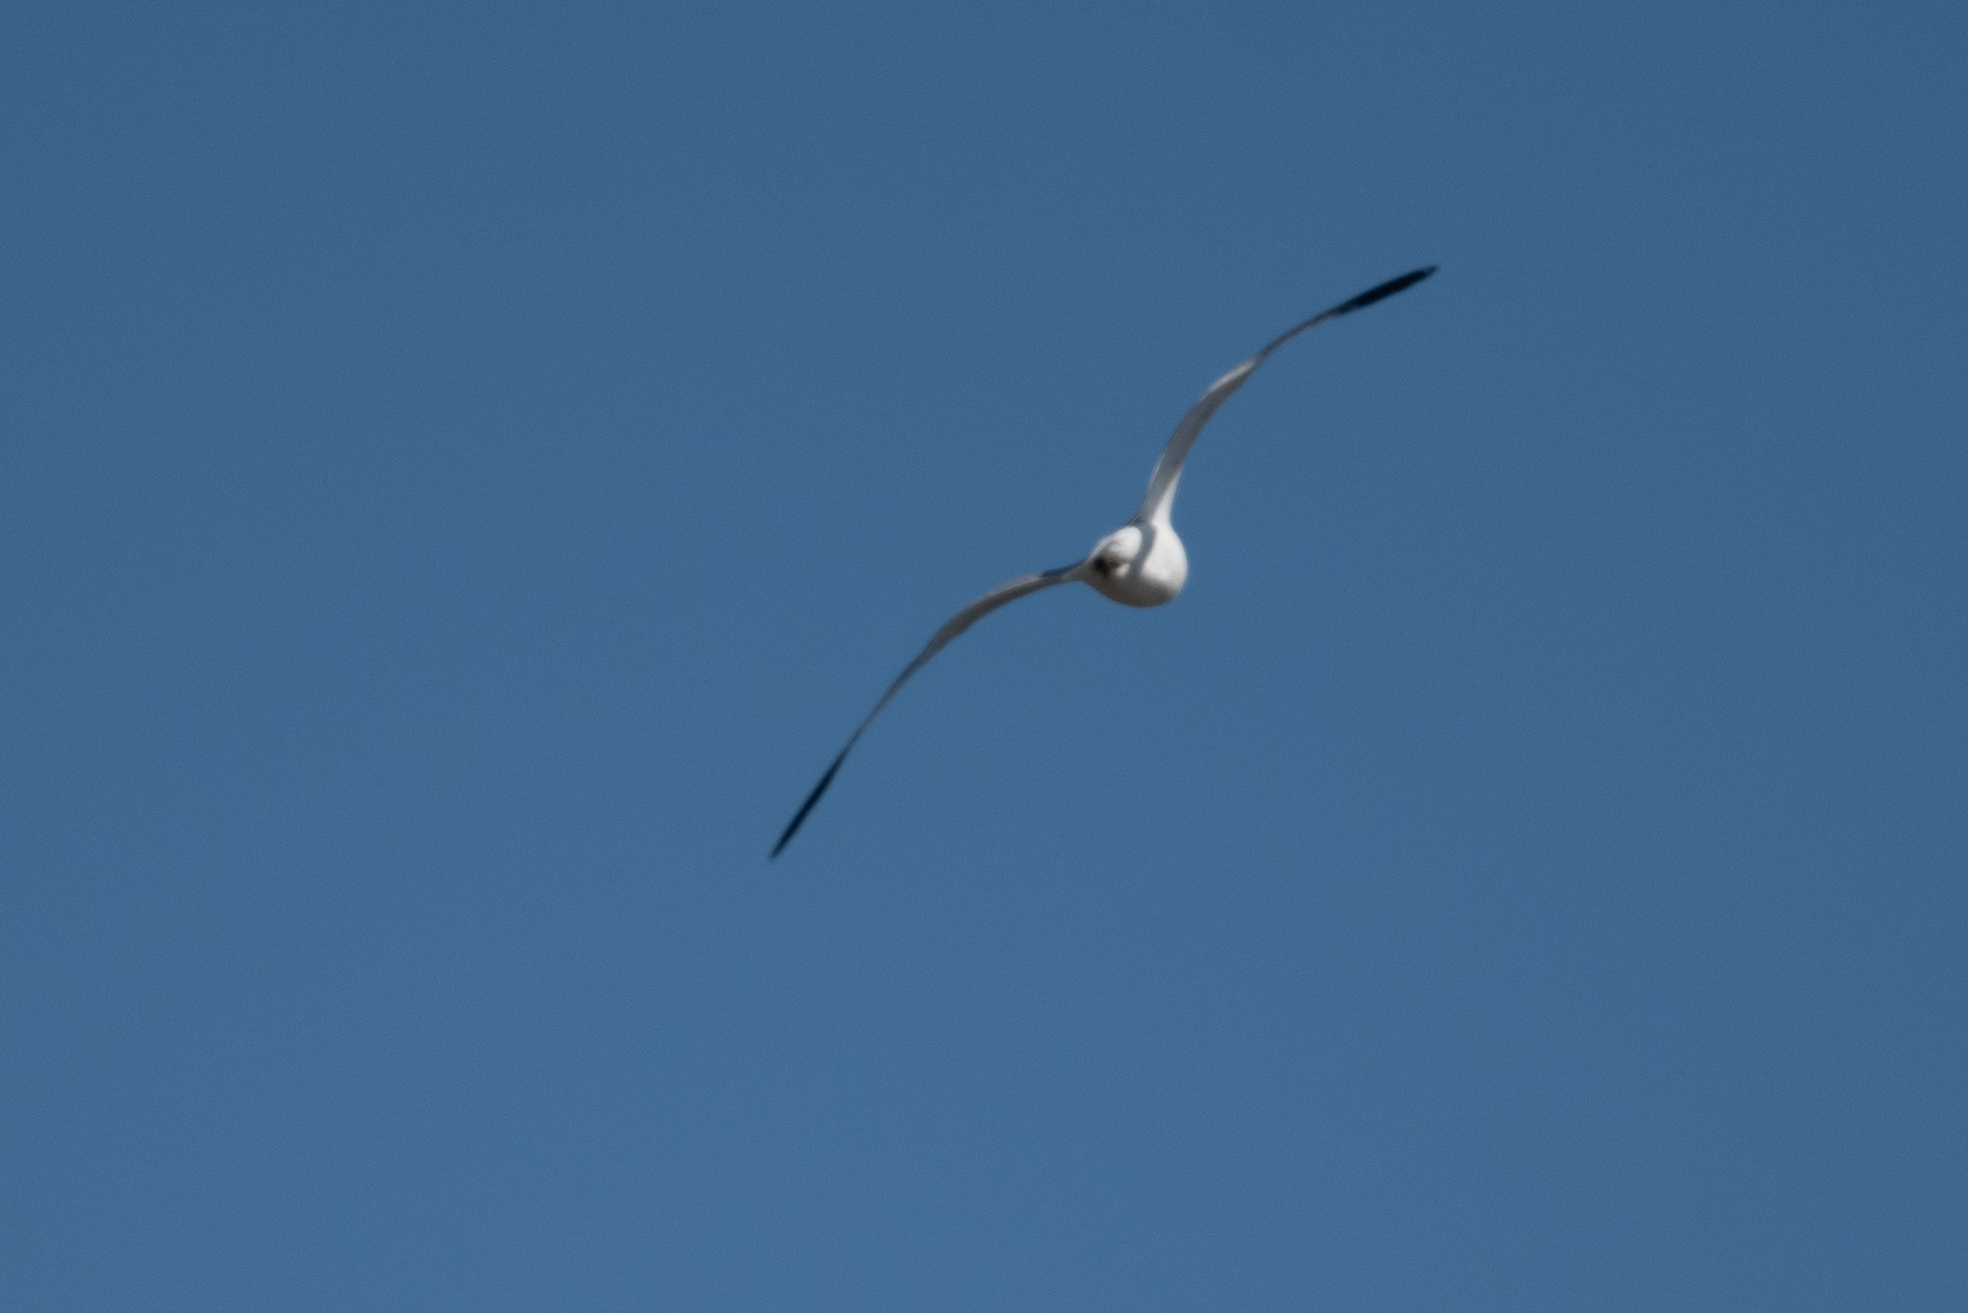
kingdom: Animalia
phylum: Chordata
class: Aves
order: Charadriiformes
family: Laridae
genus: Larus
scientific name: Larus delawarensis
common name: Ring-billed gull
